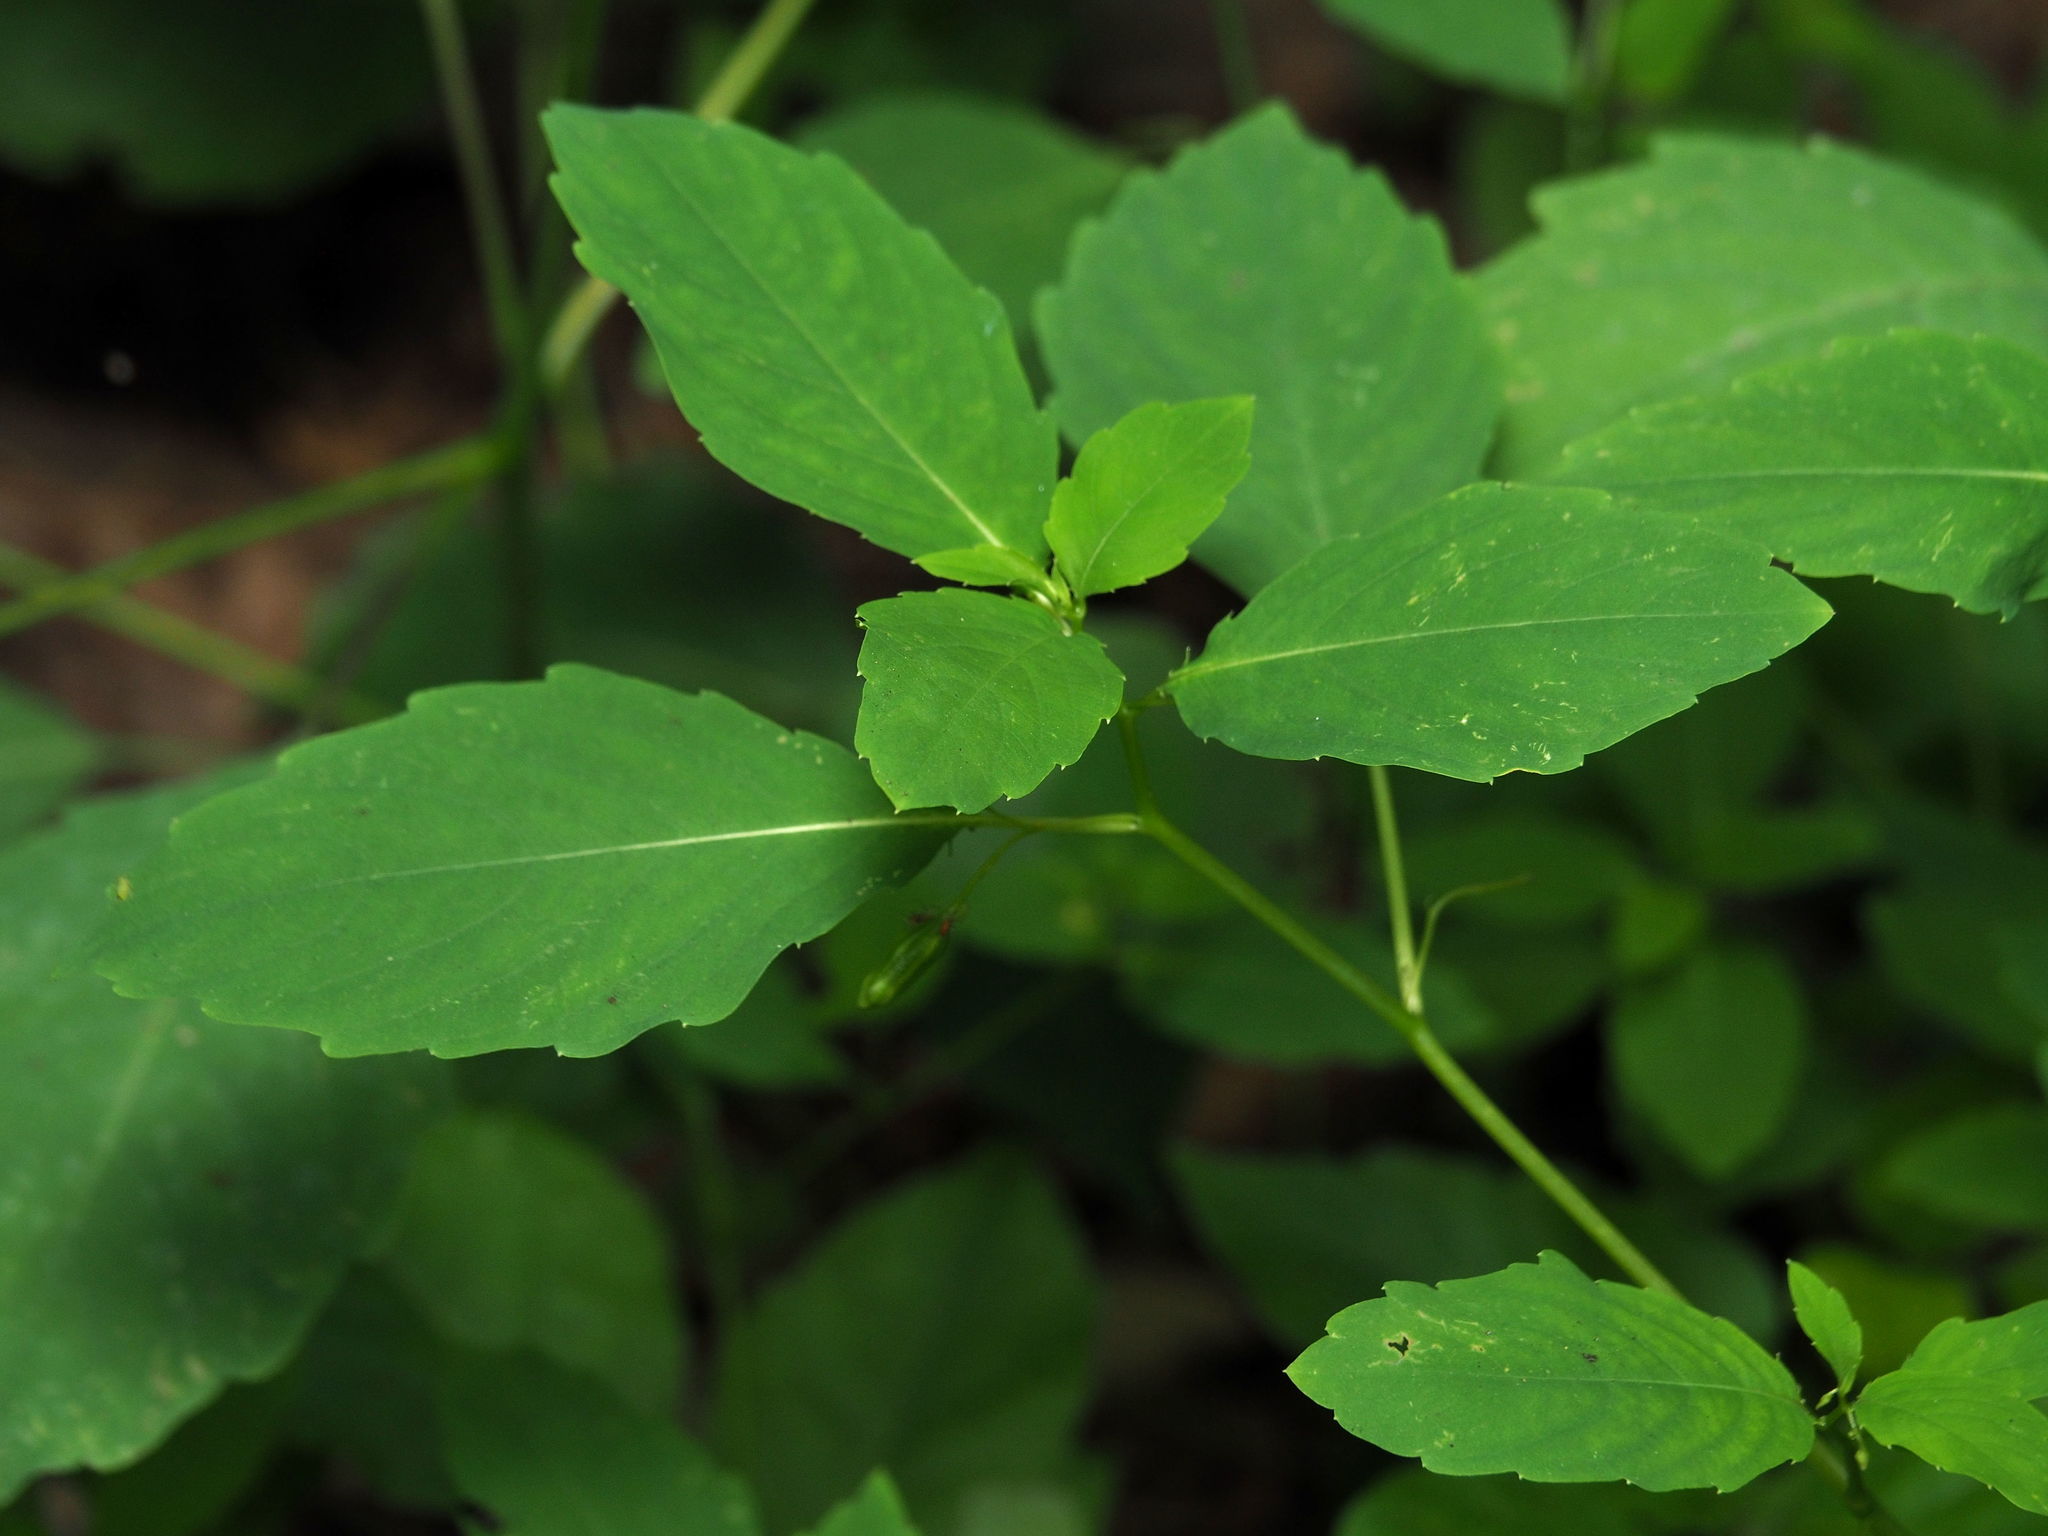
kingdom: Plantae
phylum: Tracheophyta
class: Magnoliopsida
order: Ericales
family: Balsaminaceae
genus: Impatiens
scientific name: Impatiens capensis
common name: Orange balsam
